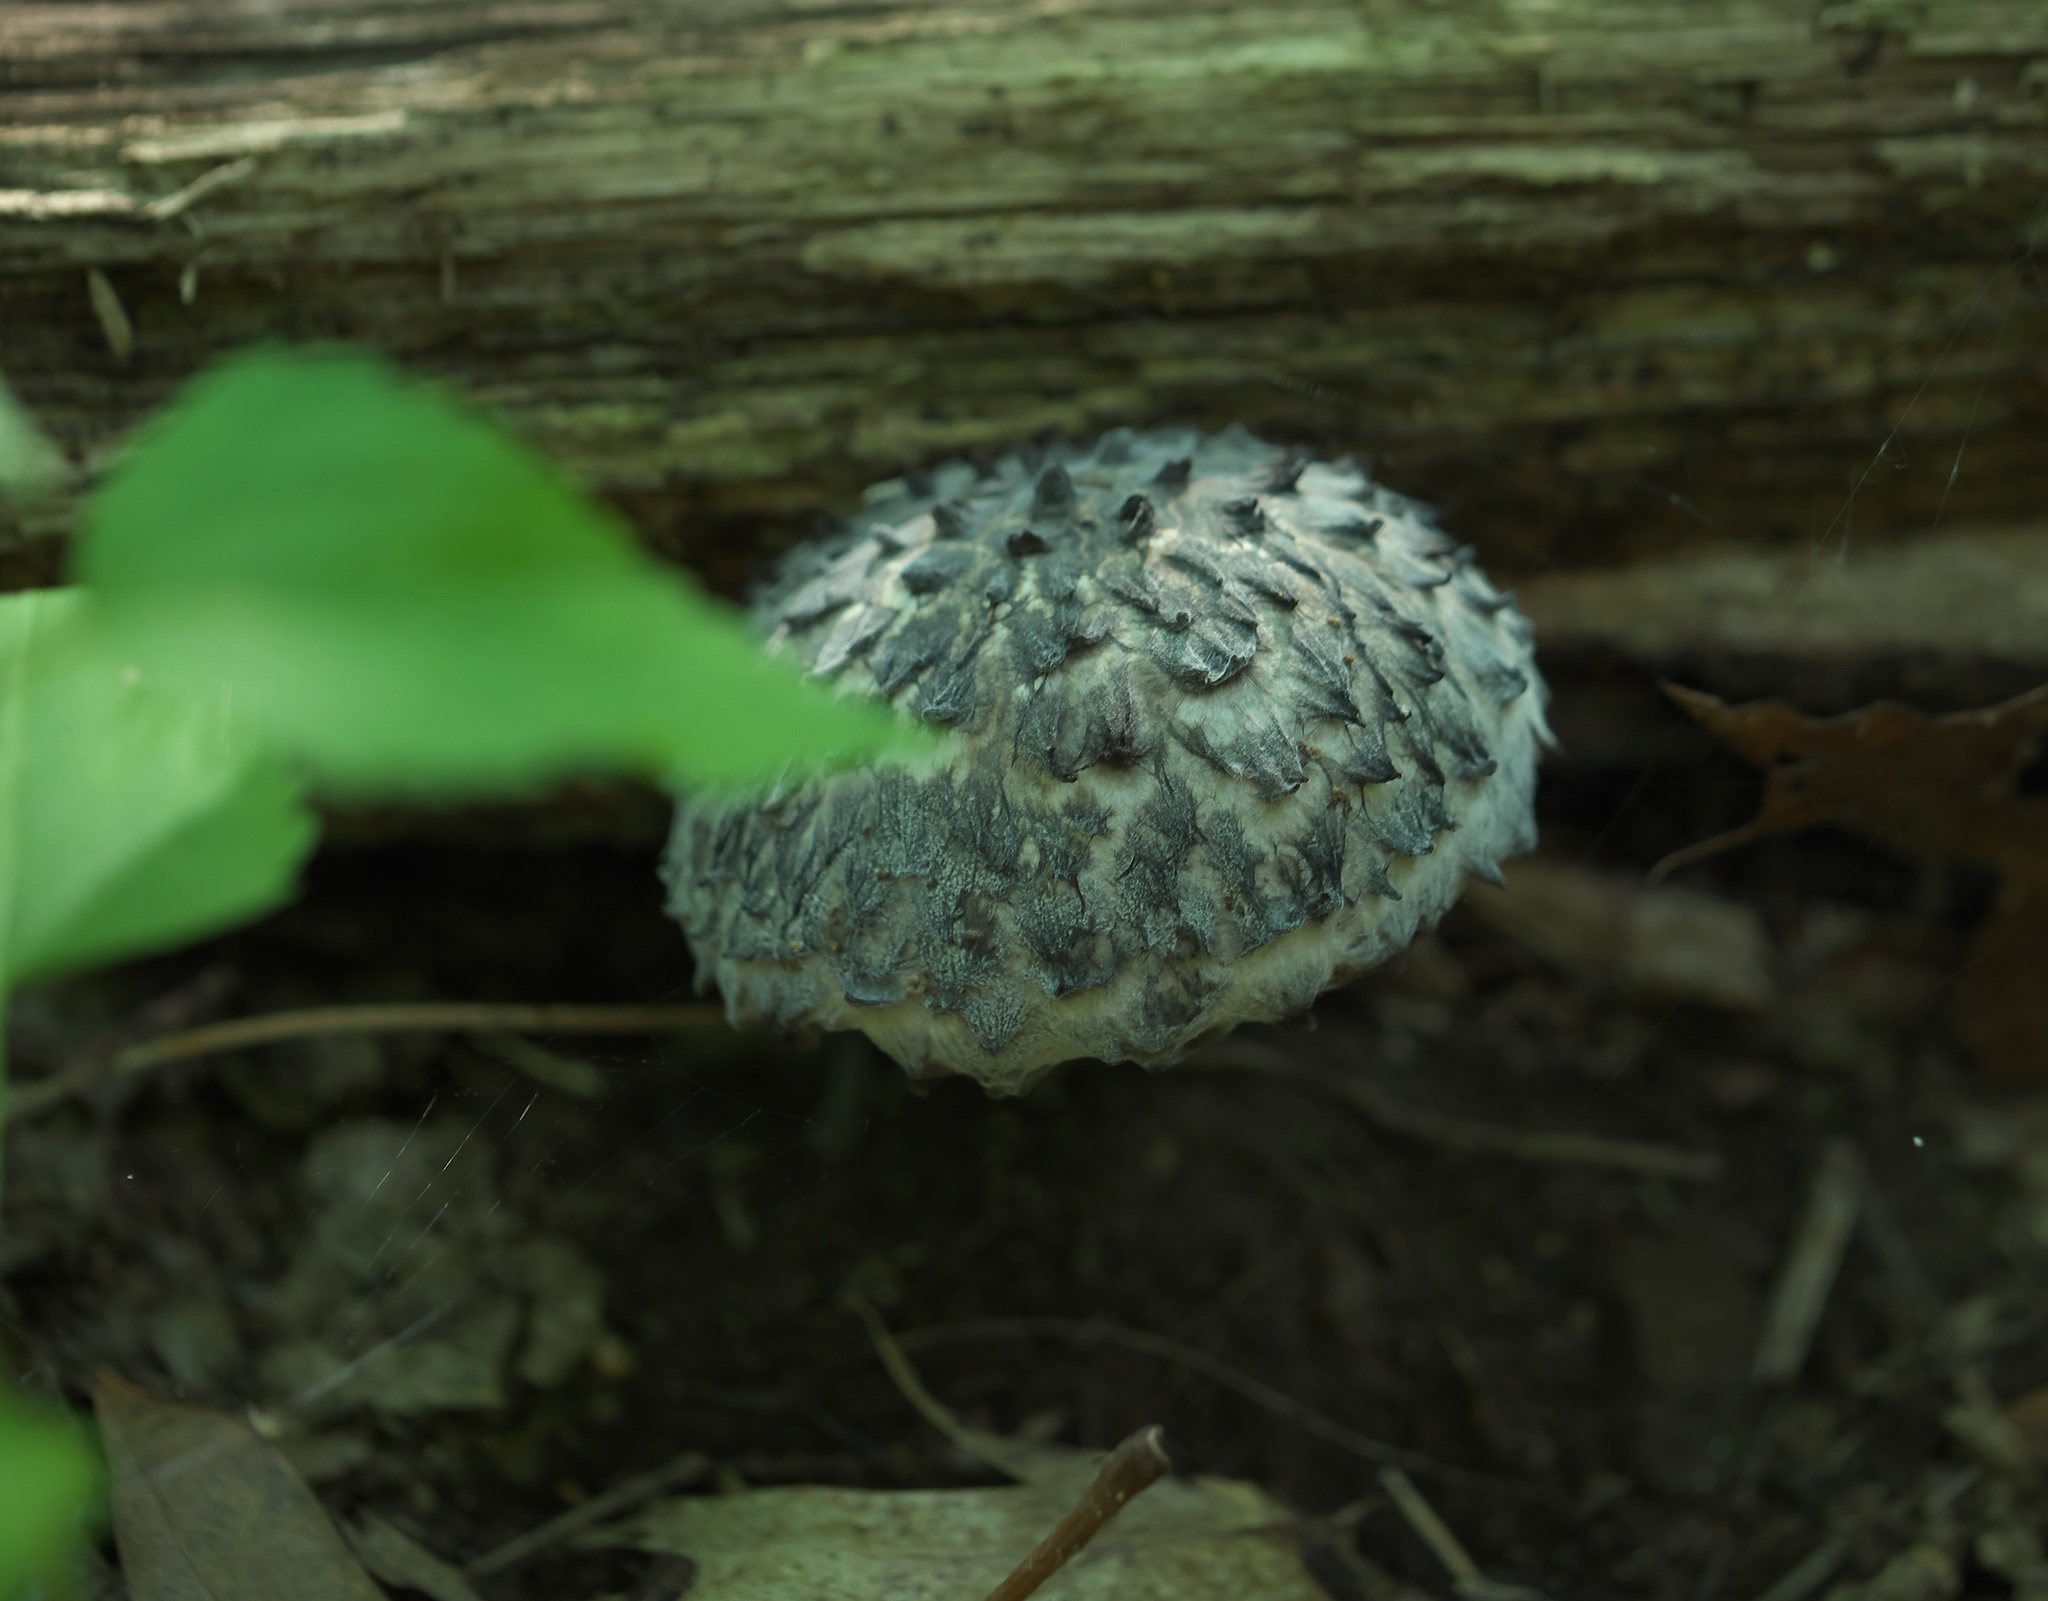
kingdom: Fungi
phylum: Basidiomycota
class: Agaricomycetes
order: Boletales
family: Boletaceae
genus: Strobilomyces
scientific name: Strobilomyces strobilaceus
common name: Old man of the woods
